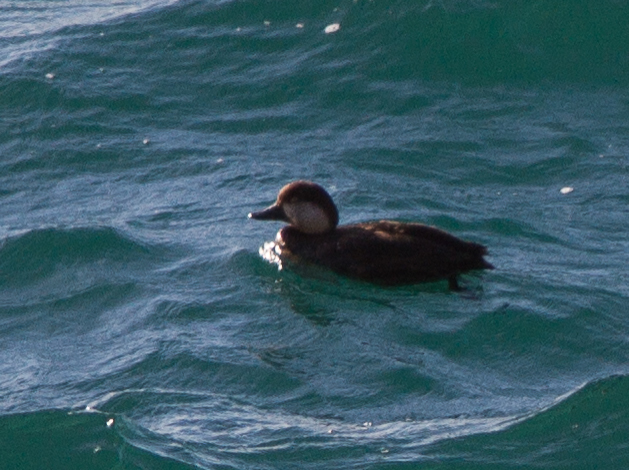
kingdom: Animalia
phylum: Chordata
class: Aves
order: Anseriformes
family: Anatidae
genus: Melanitta
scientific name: Melanitta americana
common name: Black scoter
